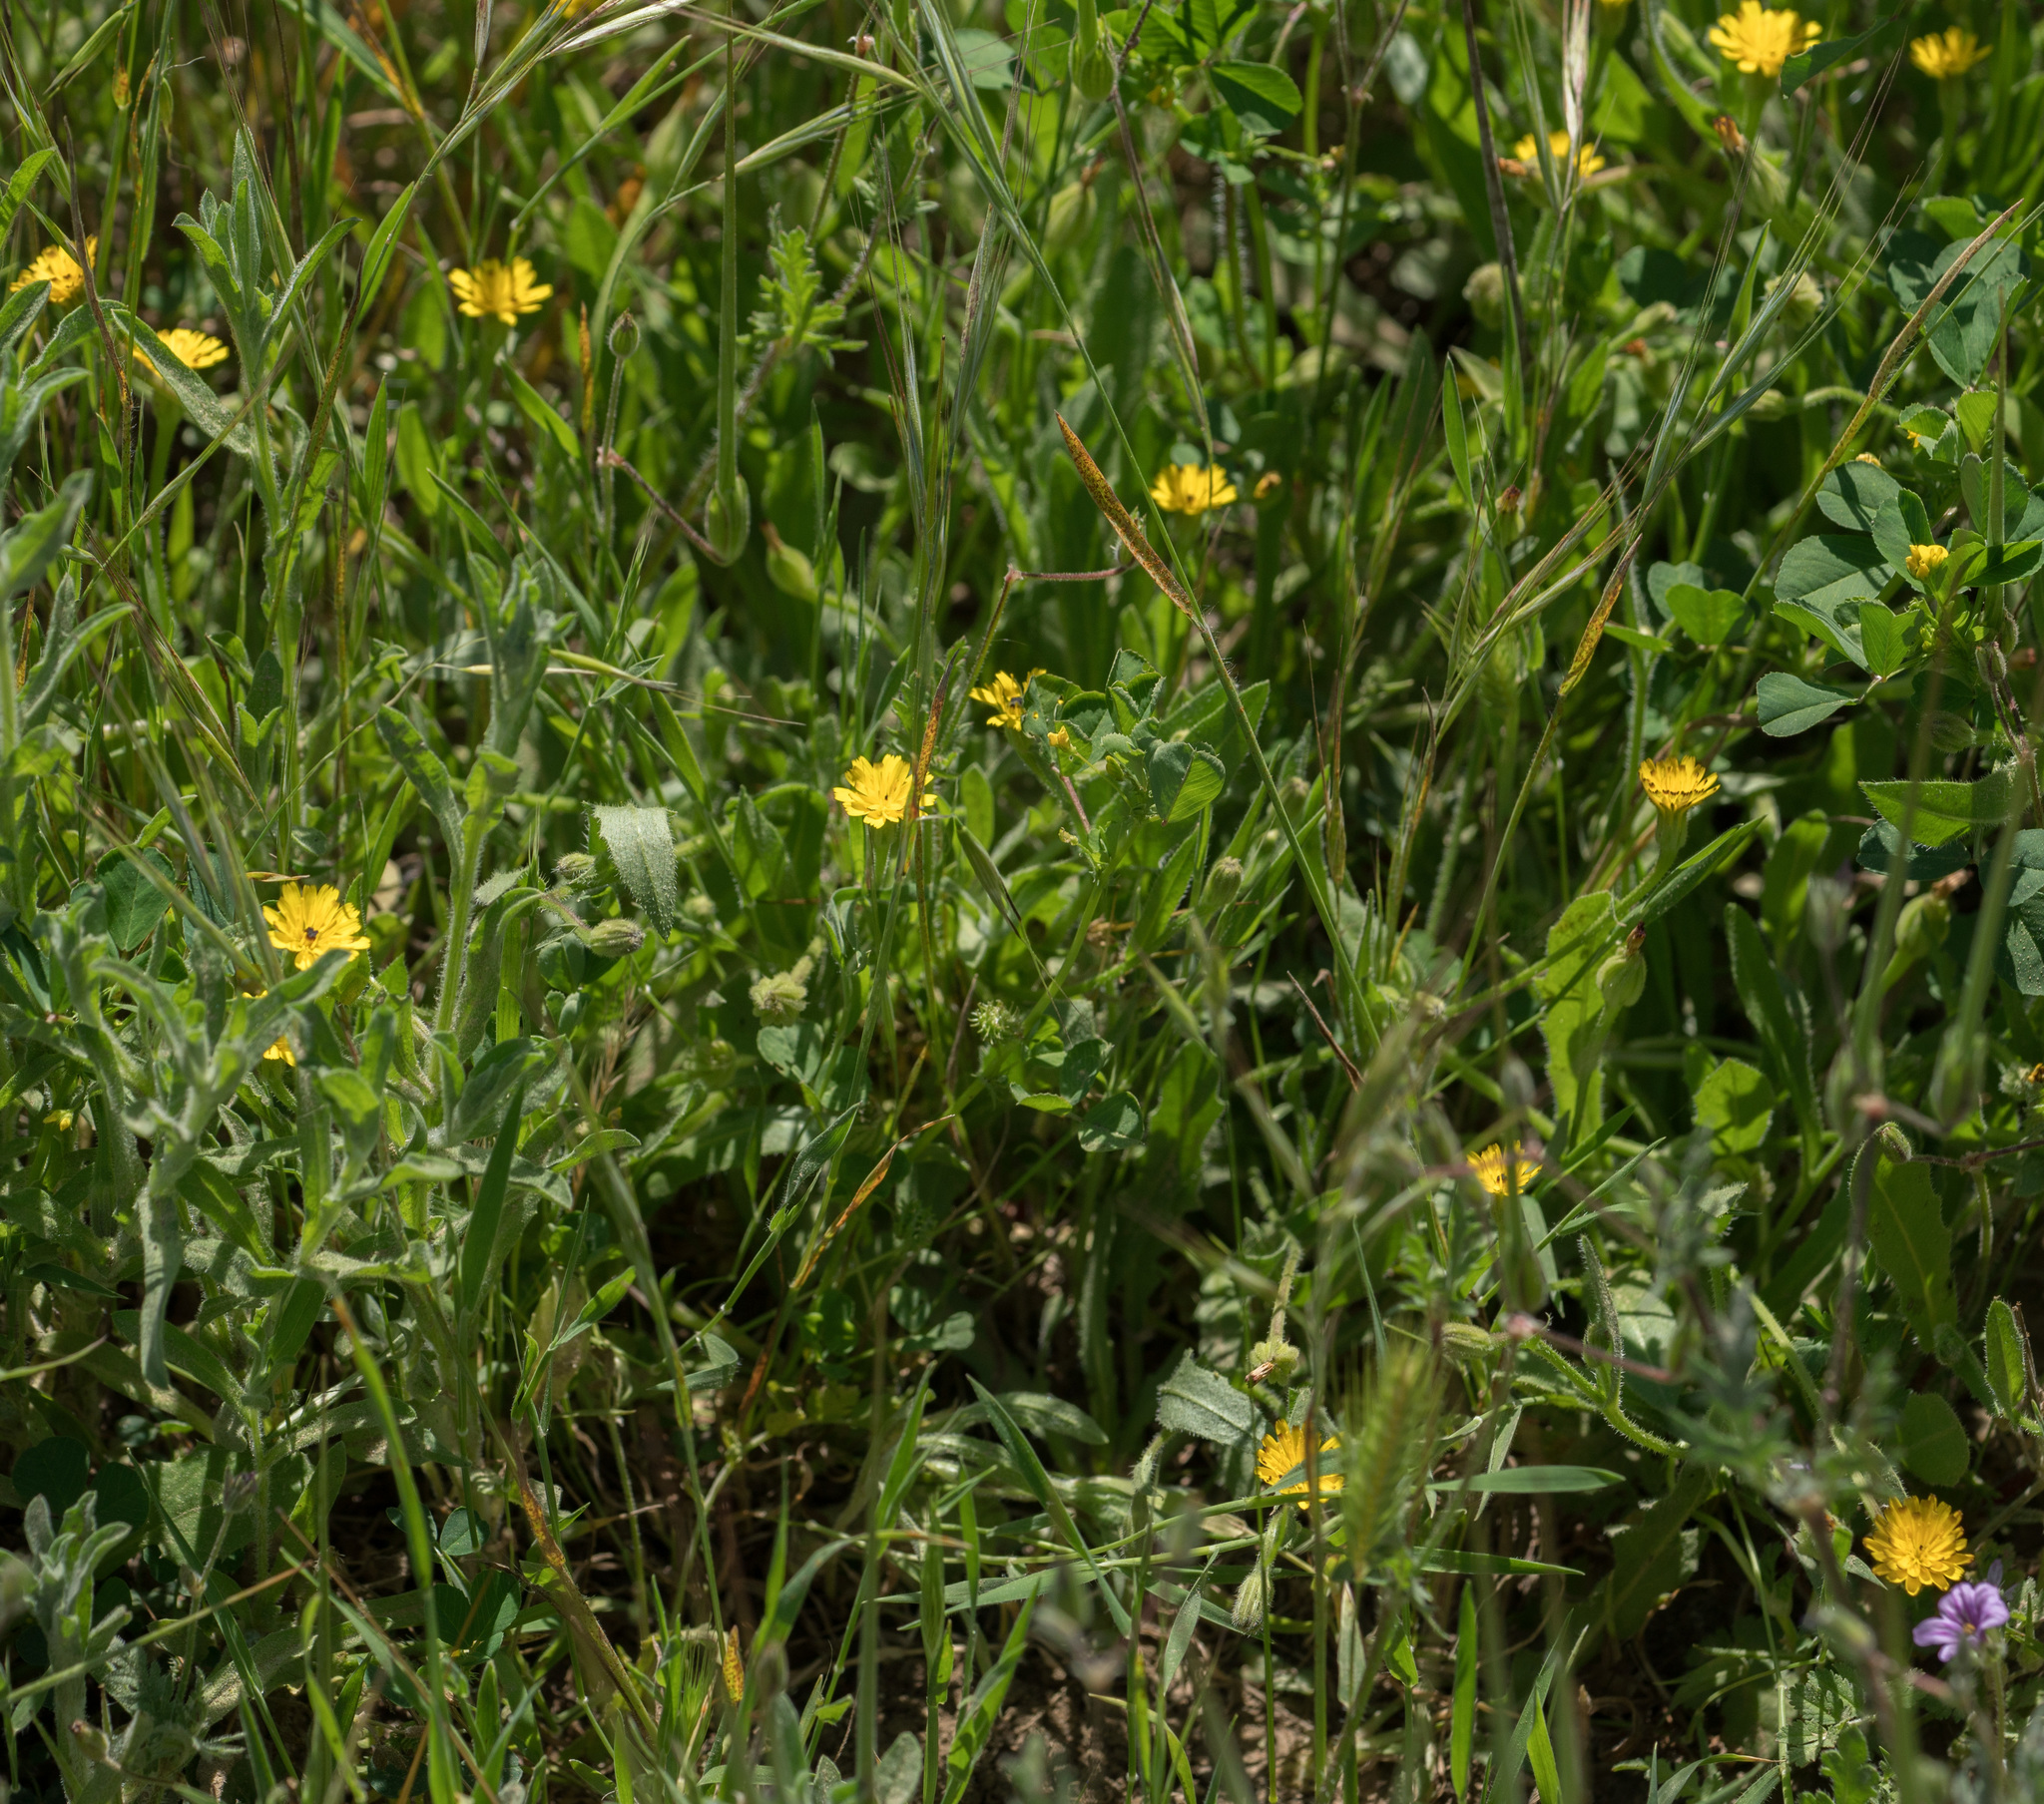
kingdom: Plantae
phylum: Tracheophyta
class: Magnoliopsida
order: Asterales
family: Asteraceae
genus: Hedypnois
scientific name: Hedypnois rhagadioloides
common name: Cretan weed
